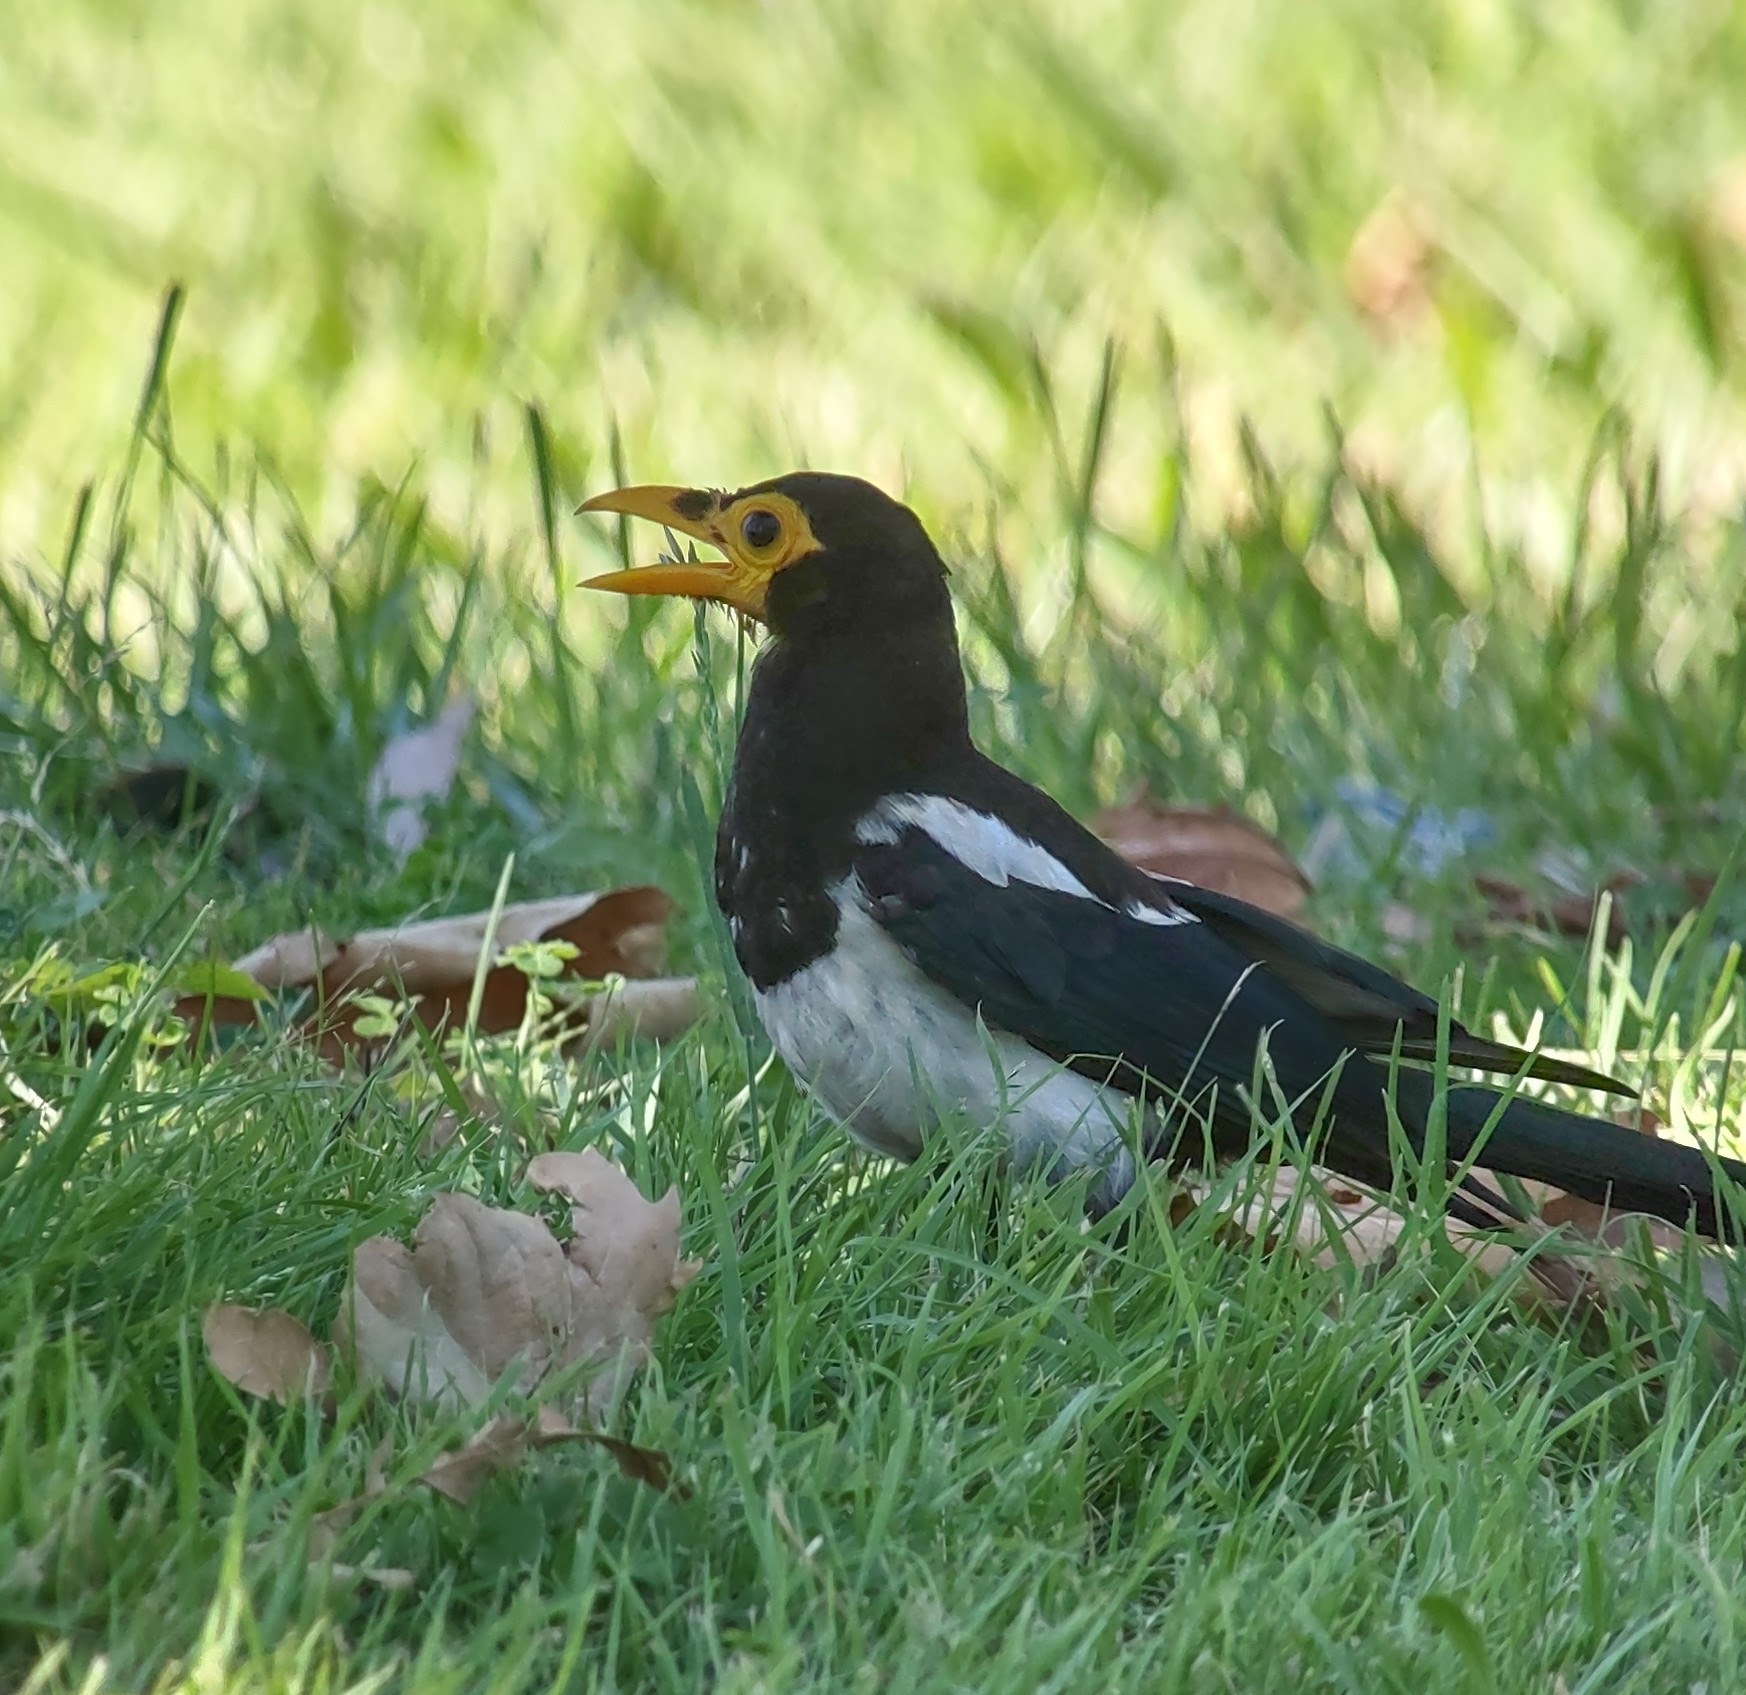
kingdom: Animalia
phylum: Chordata
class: Aves
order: Passeriformes
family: Corvidae
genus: Pica
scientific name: Pica nuttalli
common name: Yellow-billed magpie
